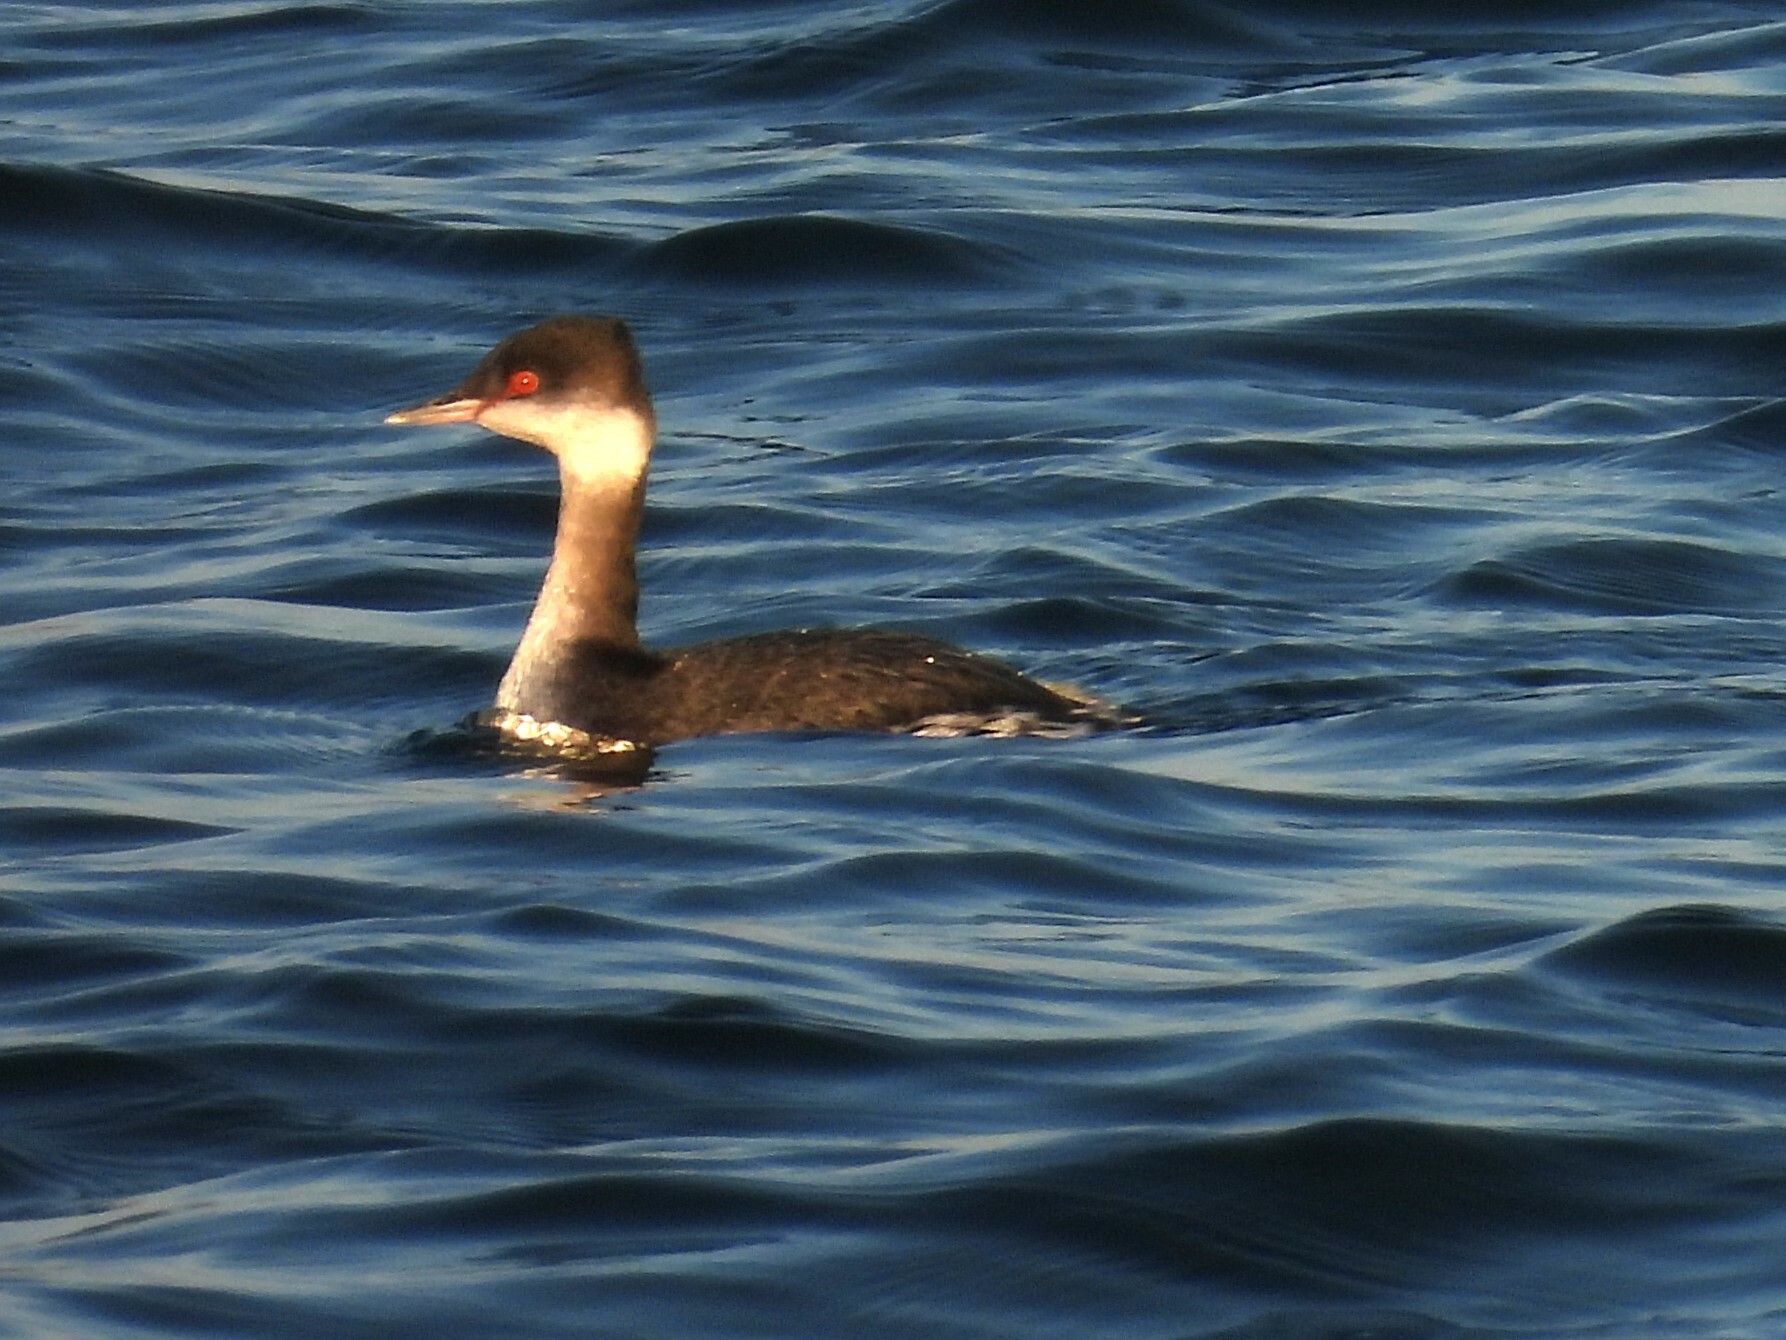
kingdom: Animalia
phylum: Chordata
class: Aves
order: Podicipediformes
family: Podicipedidae
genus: Podiceps
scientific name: Podiceps auritus
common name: Horned grebe
